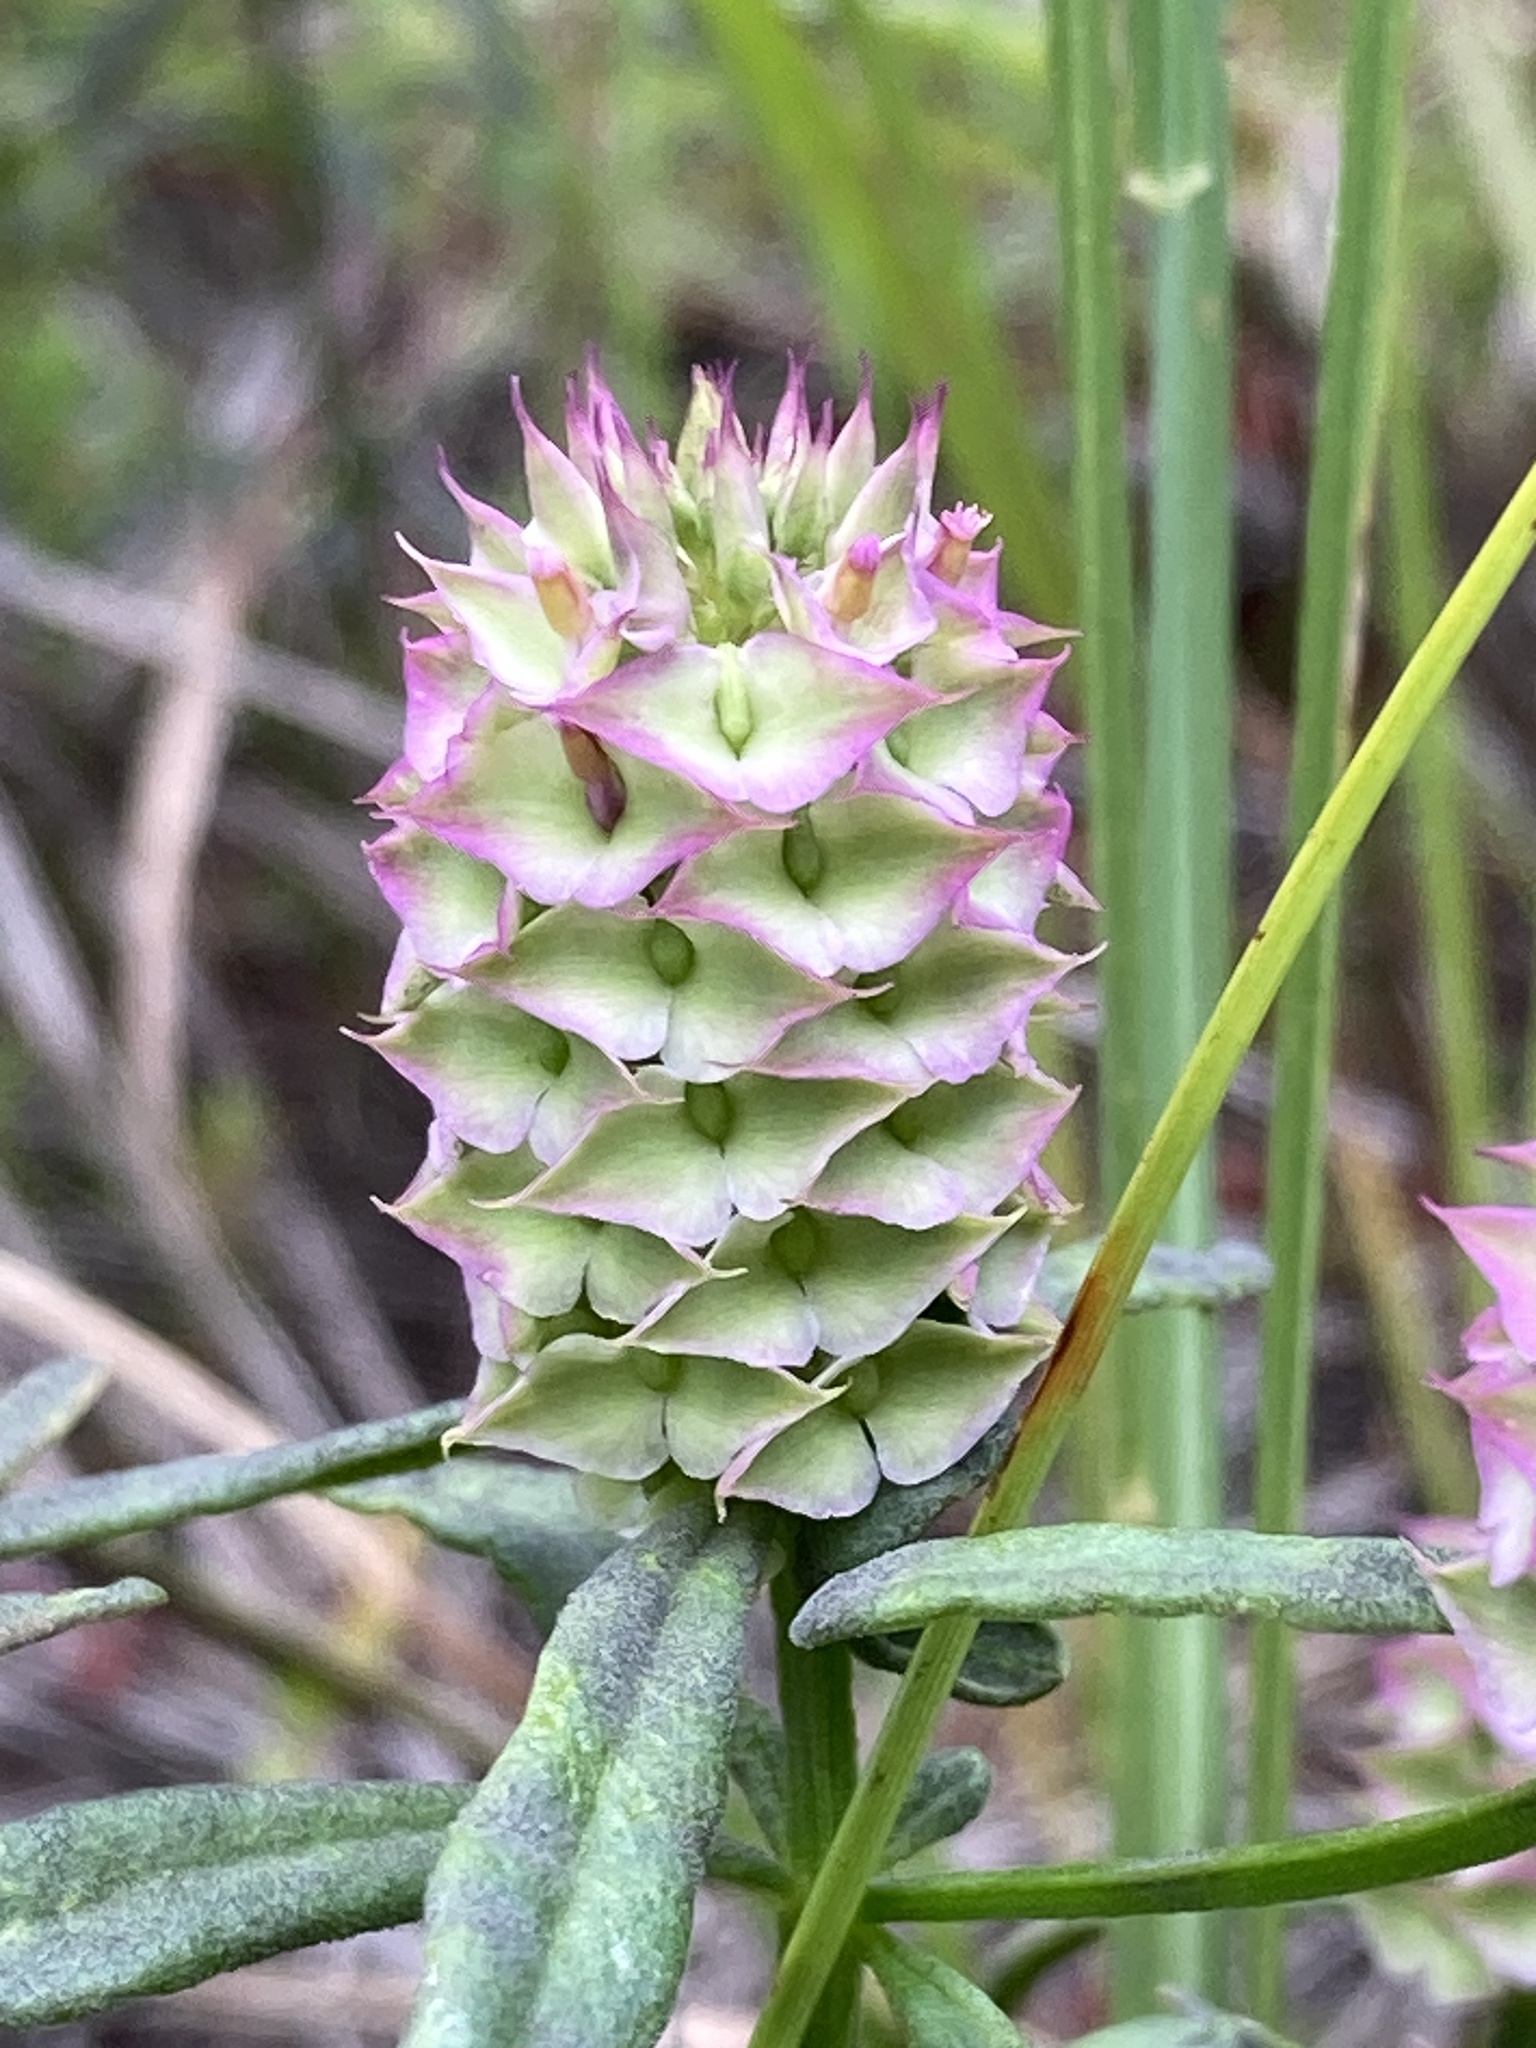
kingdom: Plantae
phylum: Tracheophyta
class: Magnoliopsida
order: Fabales
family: Polygalaceae
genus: Polygala
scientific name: Polygala cruciata
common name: Drumheads
